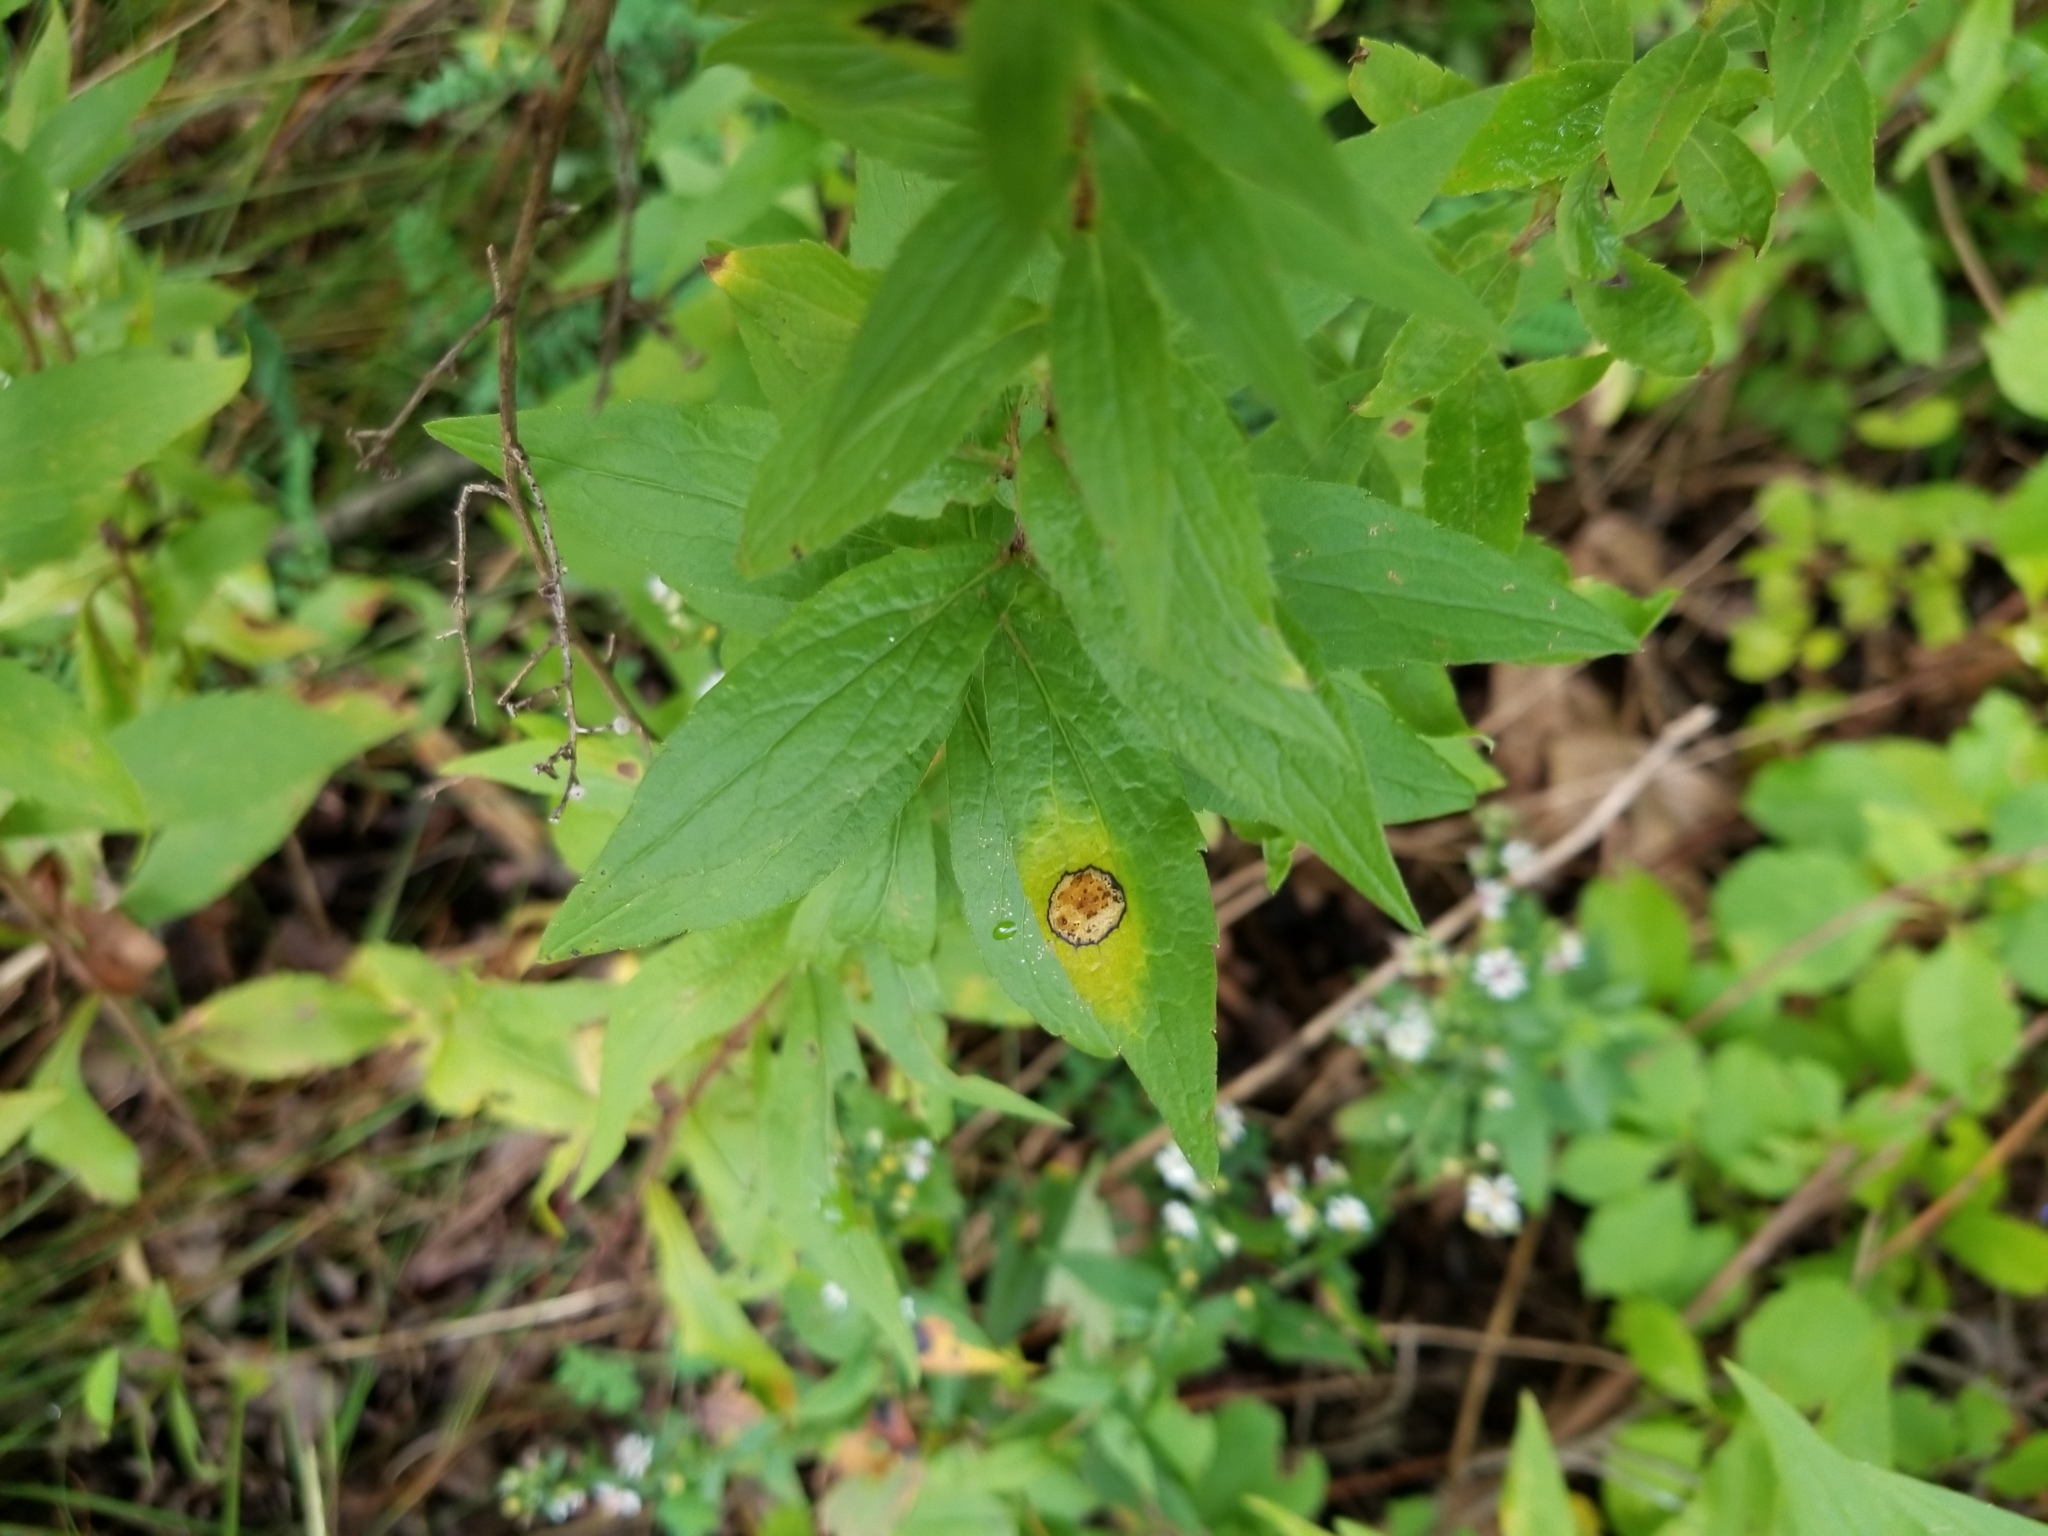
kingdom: Animalia
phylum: Arthropoda
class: Insecta
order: Diptera
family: Cecidomyiidae
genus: Asteromyia
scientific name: Asteromyia carbonifera
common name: Carbonifera goldenrod gall midge
